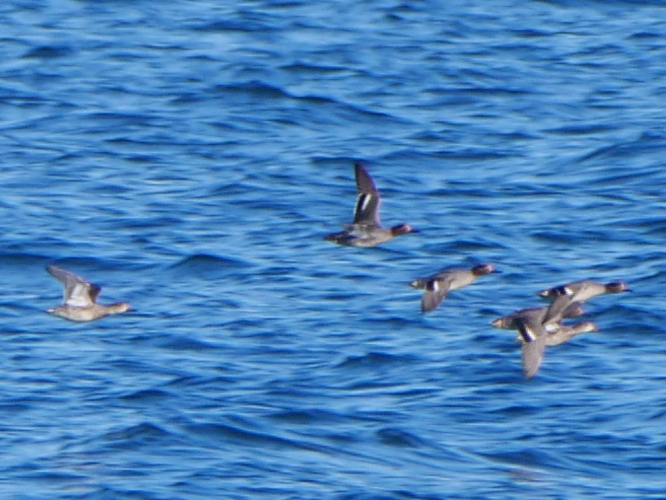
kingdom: Animalia
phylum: Chordata
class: Aves
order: Anseriformes
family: Anatidae
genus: Anas
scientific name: Anas crecca
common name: Eurasian teal
